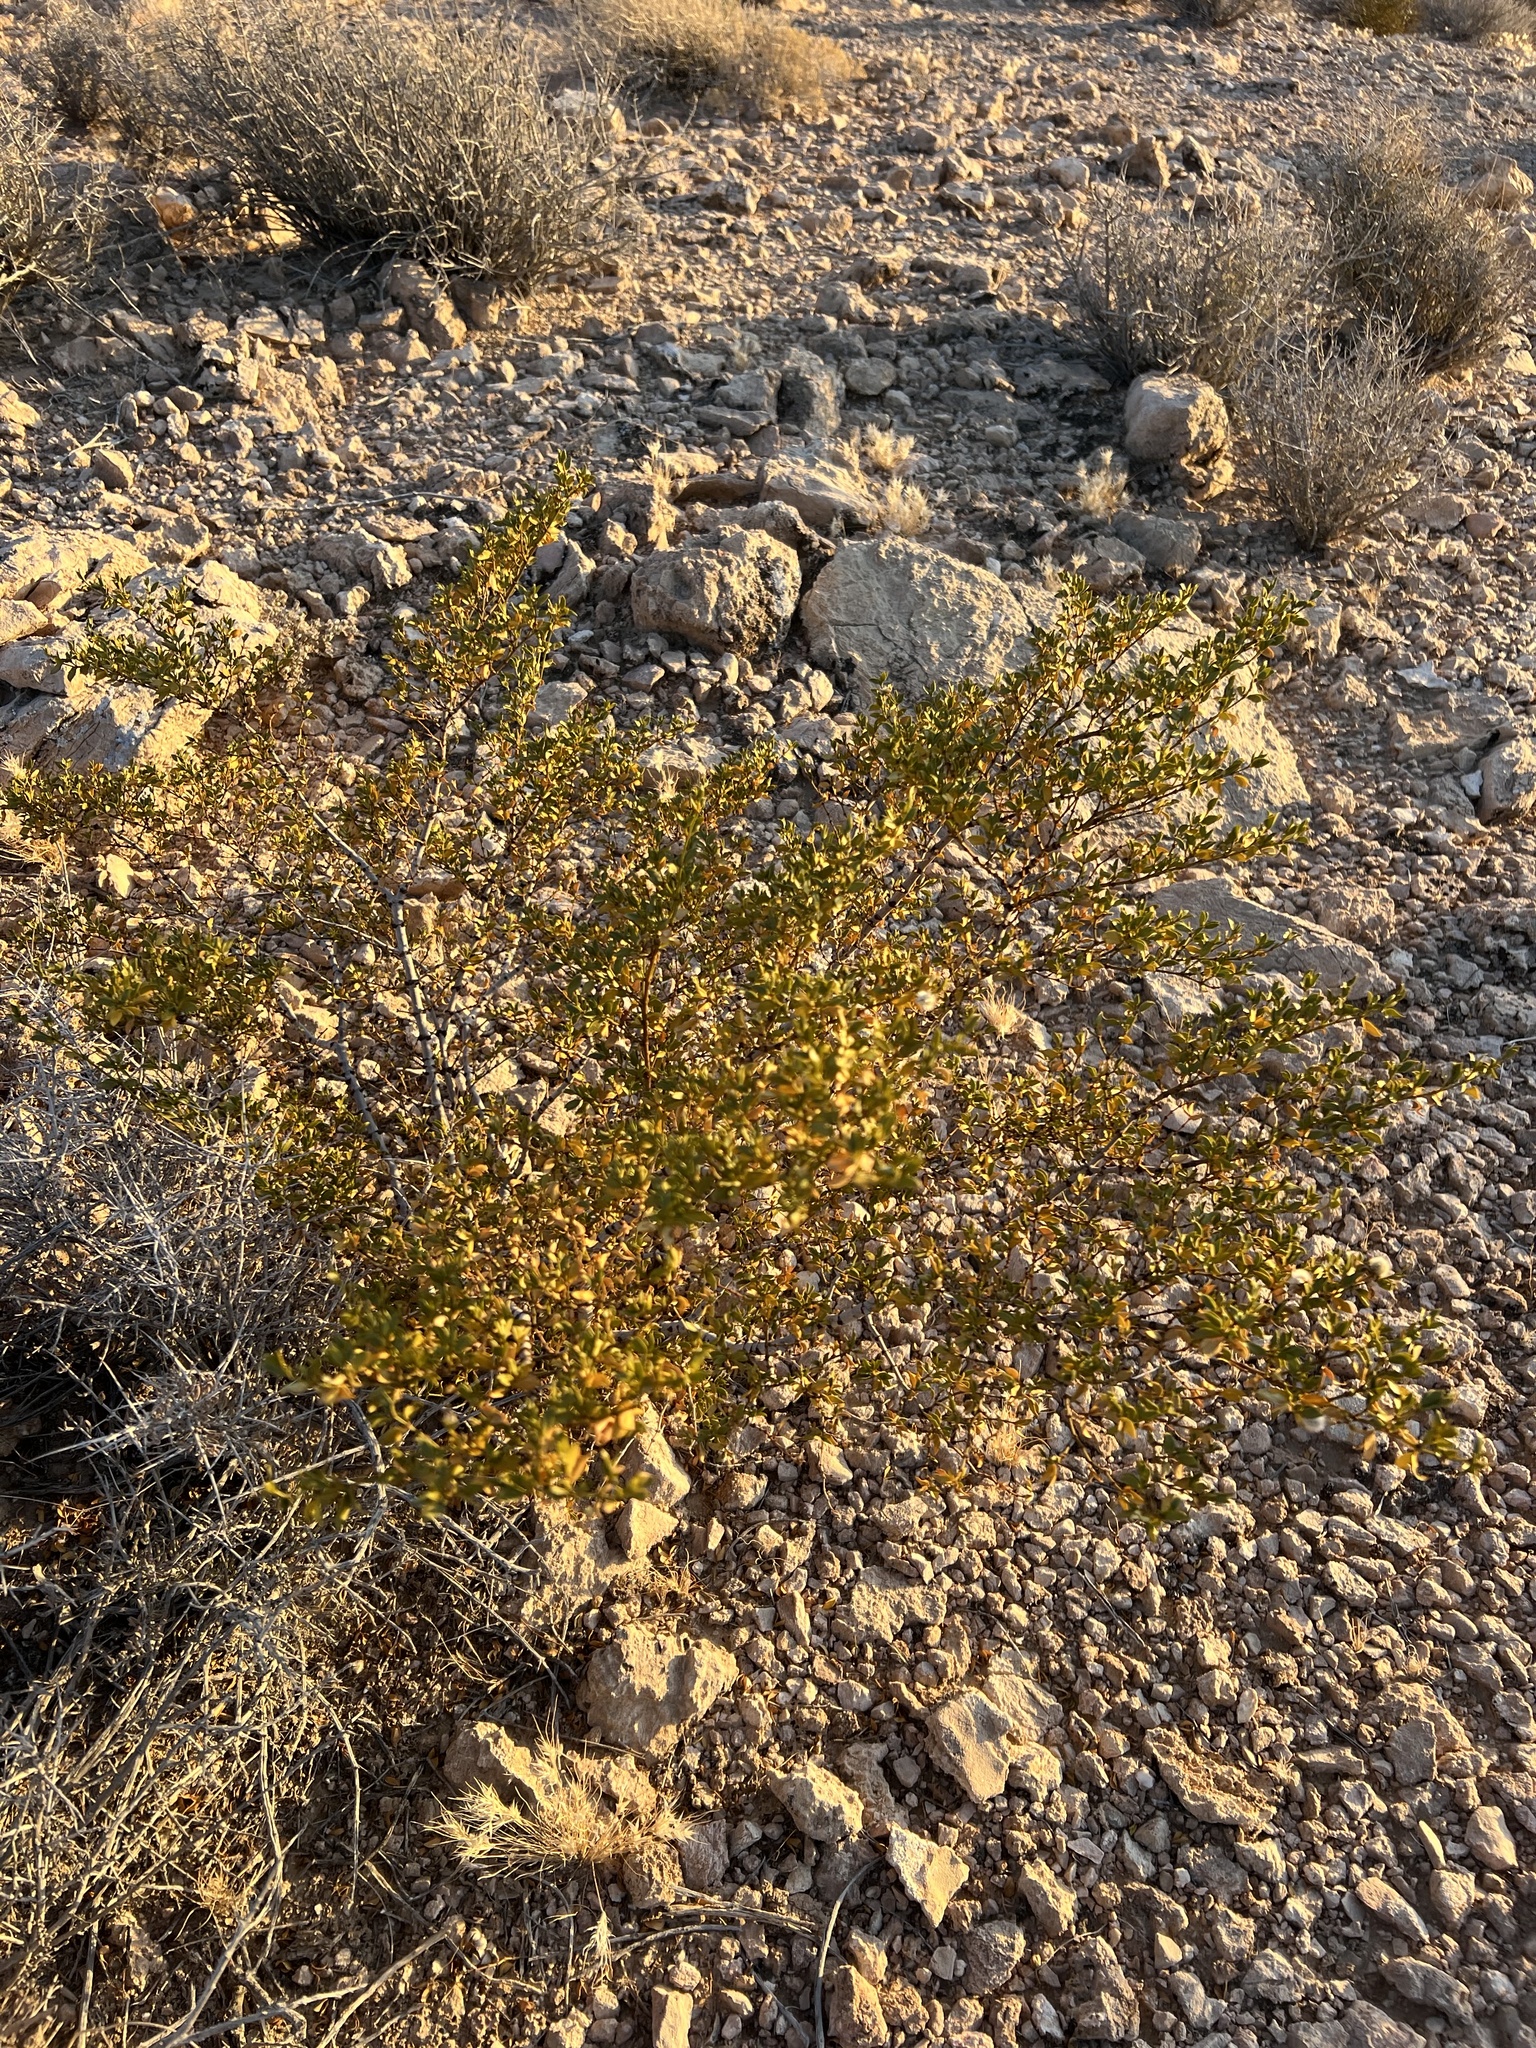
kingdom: Plantae
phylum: Tracheophyta
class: Magnoliopsida
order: Zygophyllales
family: Zygophyllaceae
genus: Larrea
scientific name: Larrea tridentata
